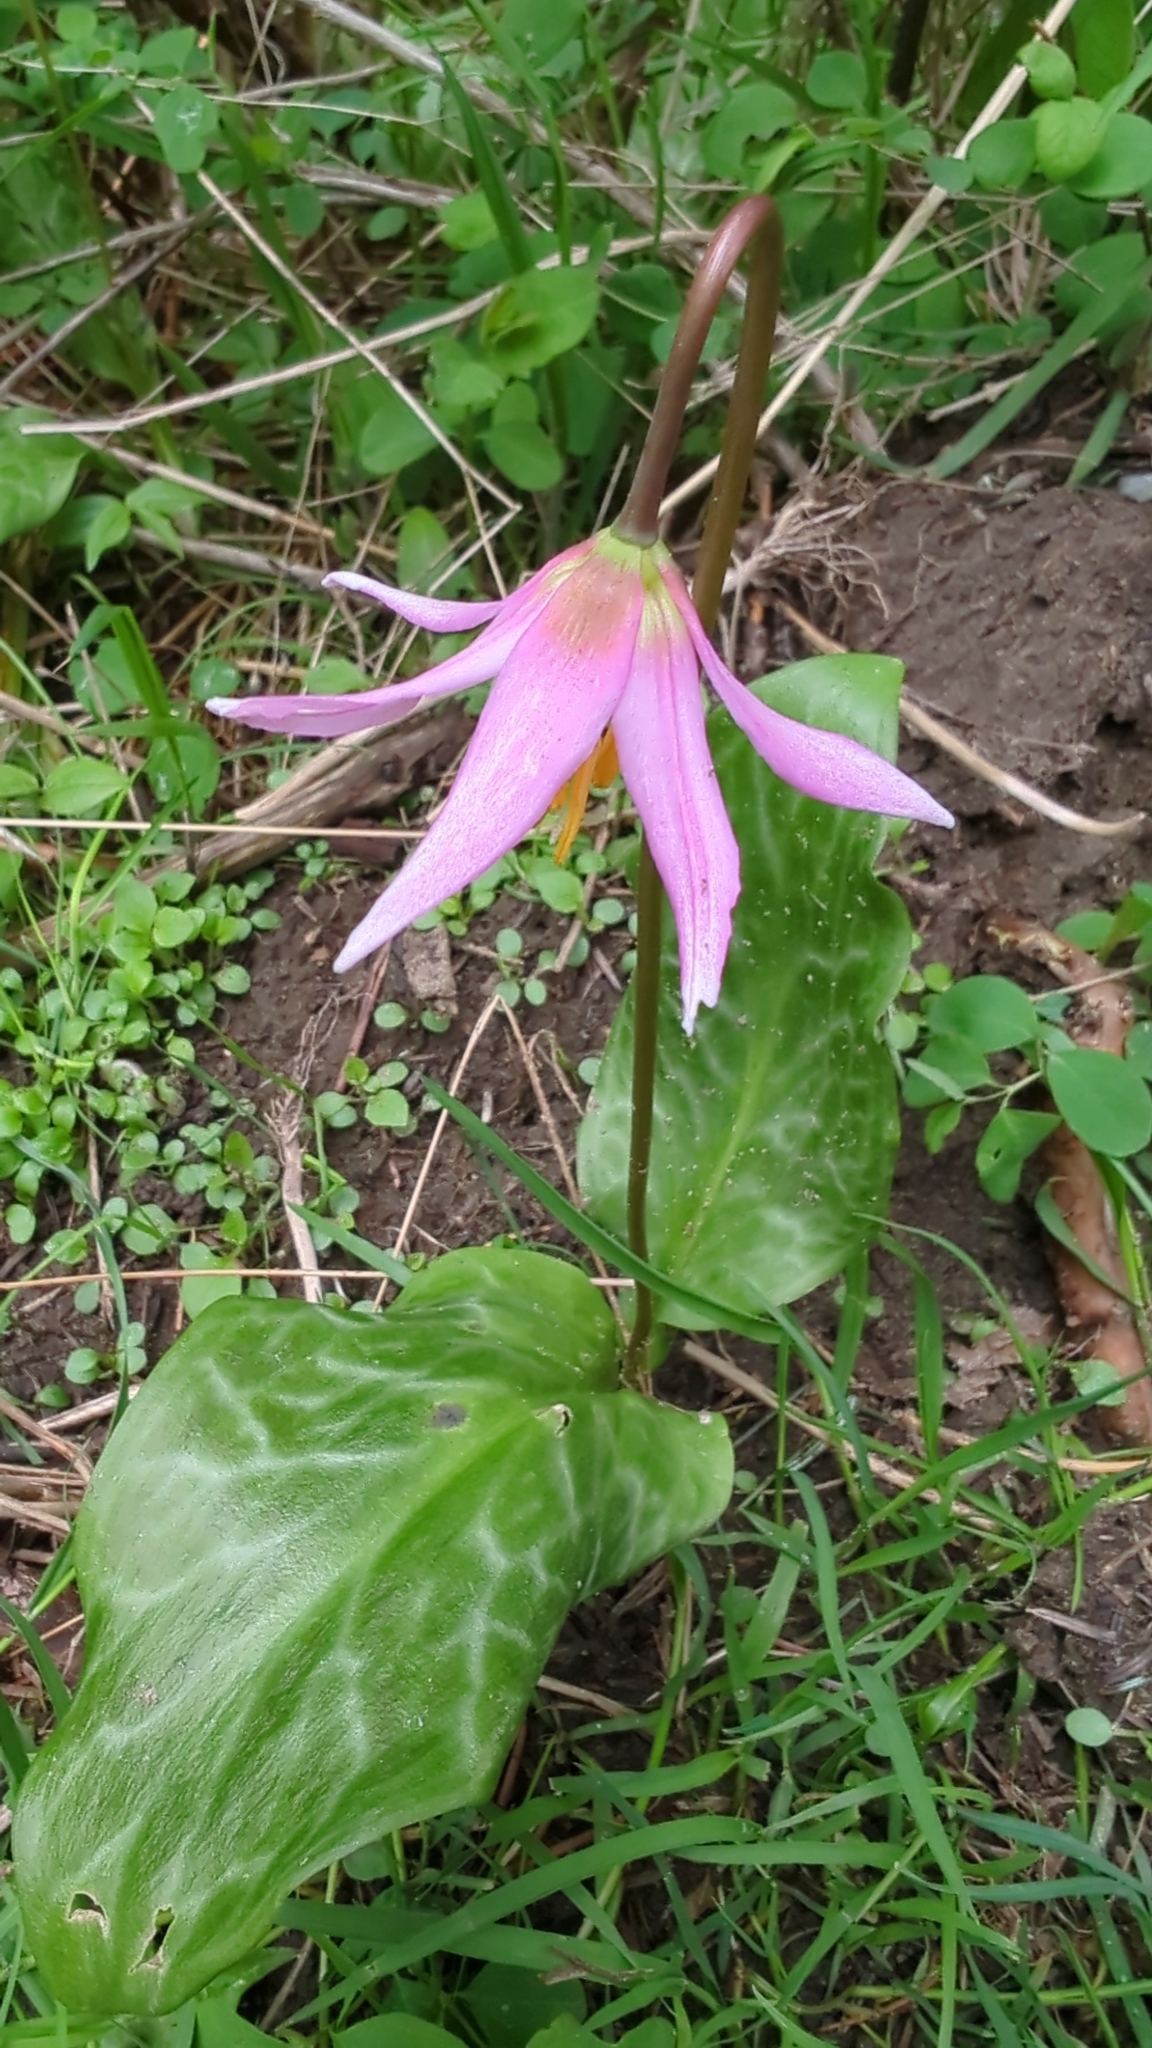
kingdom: Plantae
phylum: Tracheophyta
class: Liliopsida
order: Liliales
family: Liliaceae
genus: Erythronium
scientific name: Erythronium revolutum
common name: Pink fawn-lily
